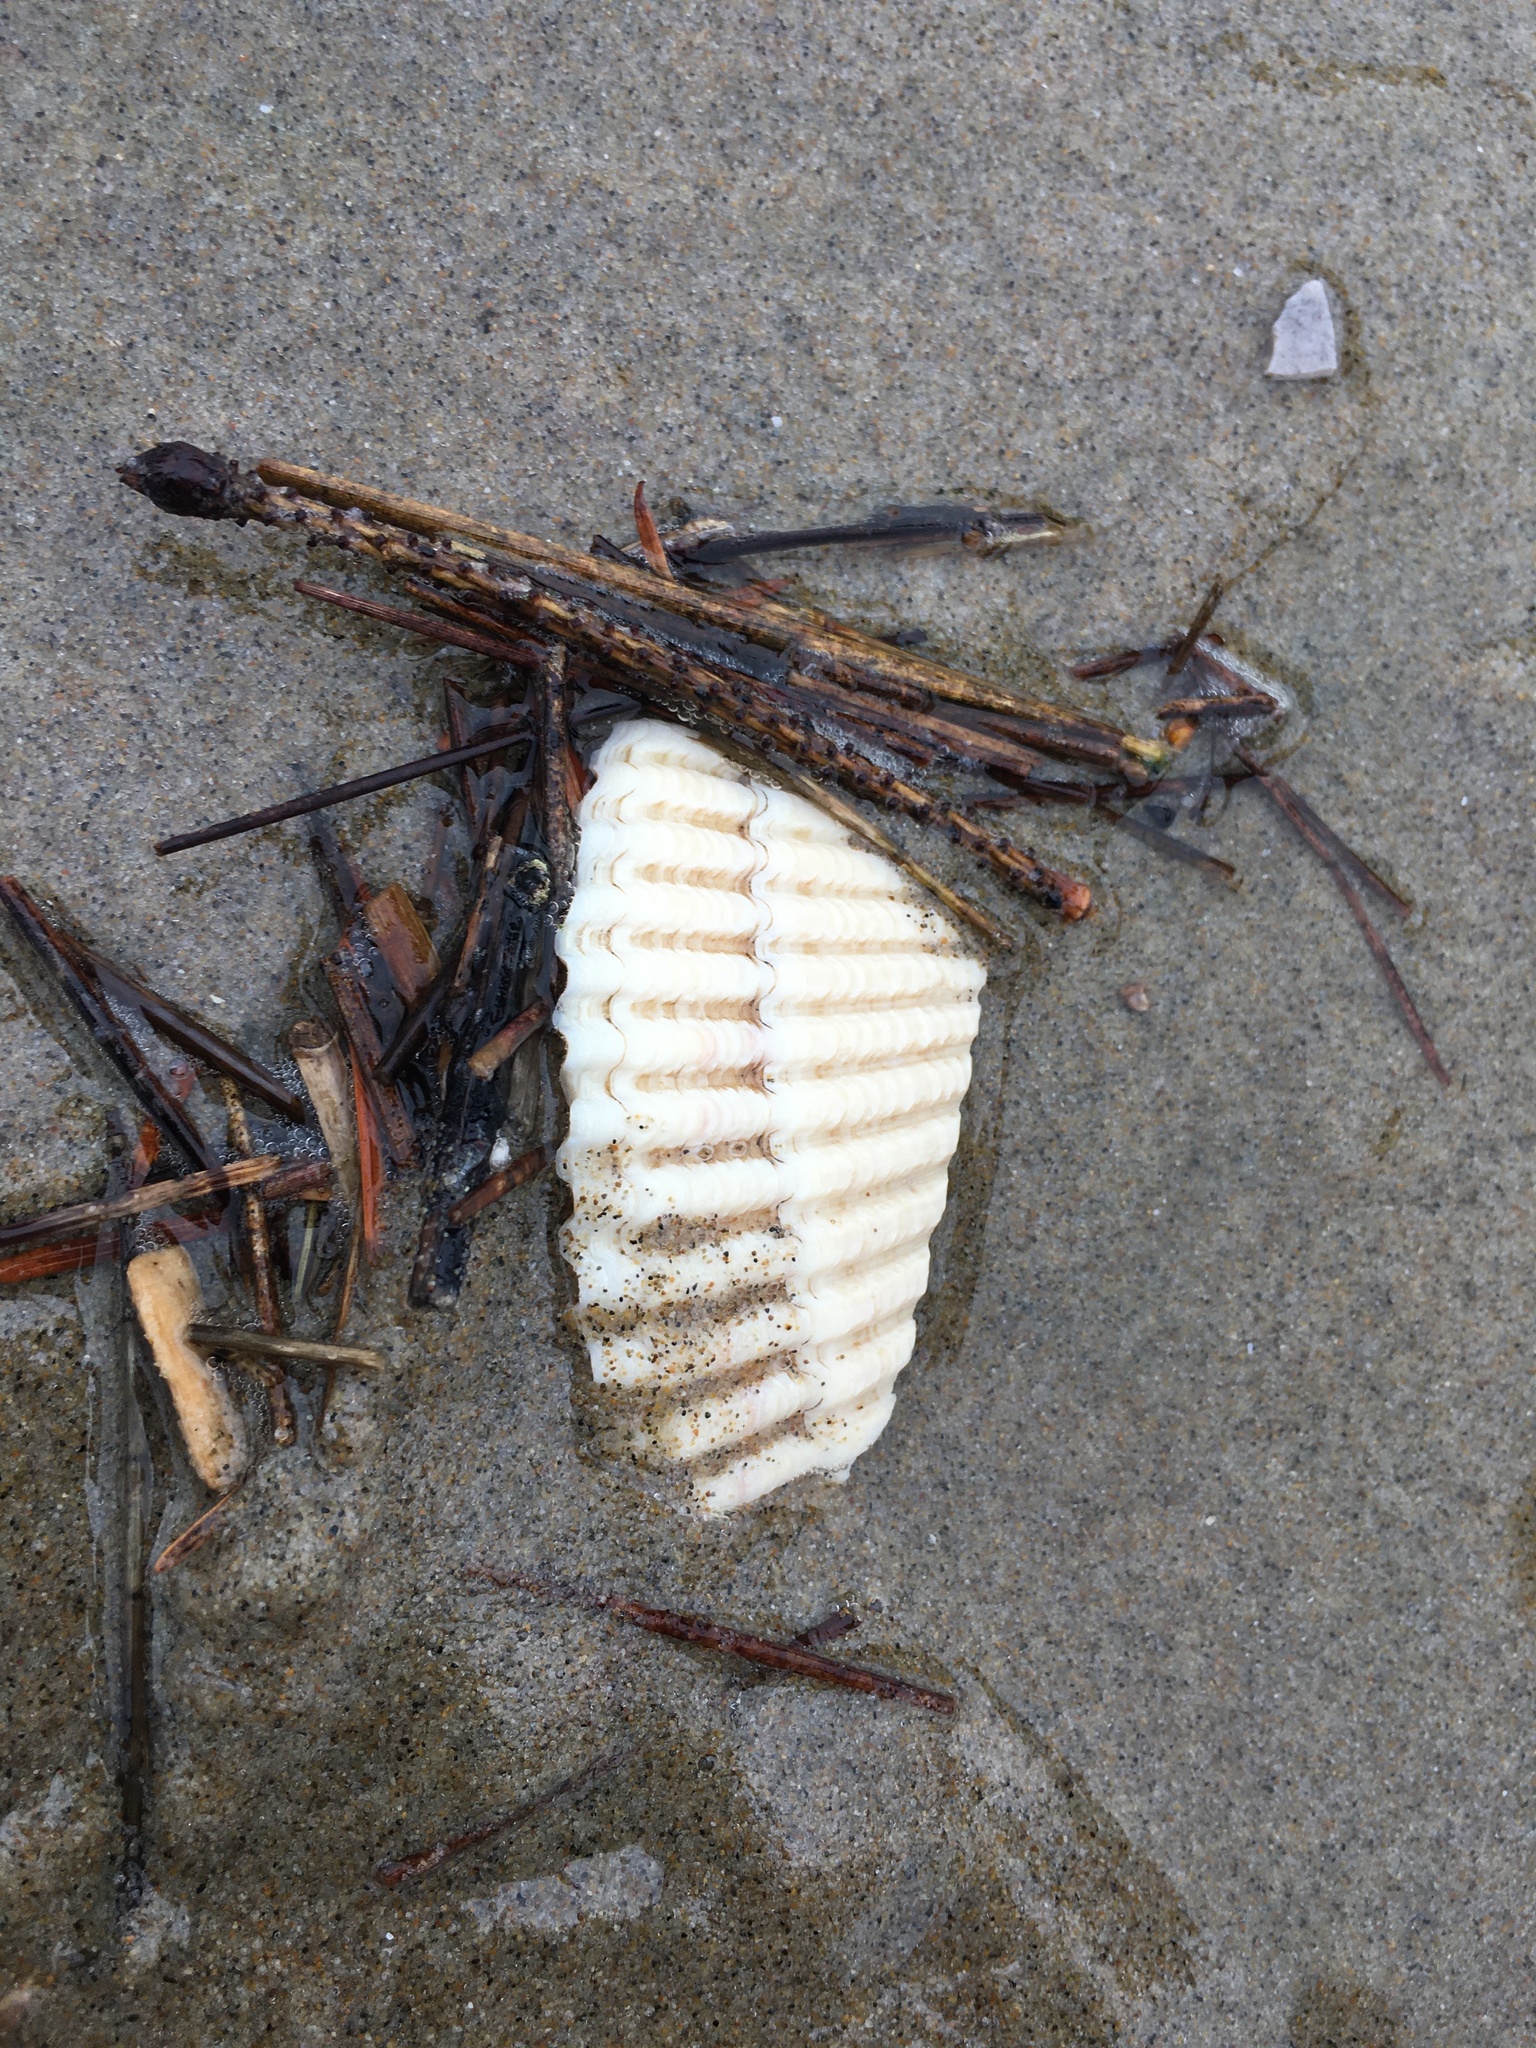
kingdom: Animalia
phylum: Mollusca
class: Bivalvia
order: Cardiida
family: Cardiidae
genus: Clinocardium
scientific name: Clinocardium nuttallii
